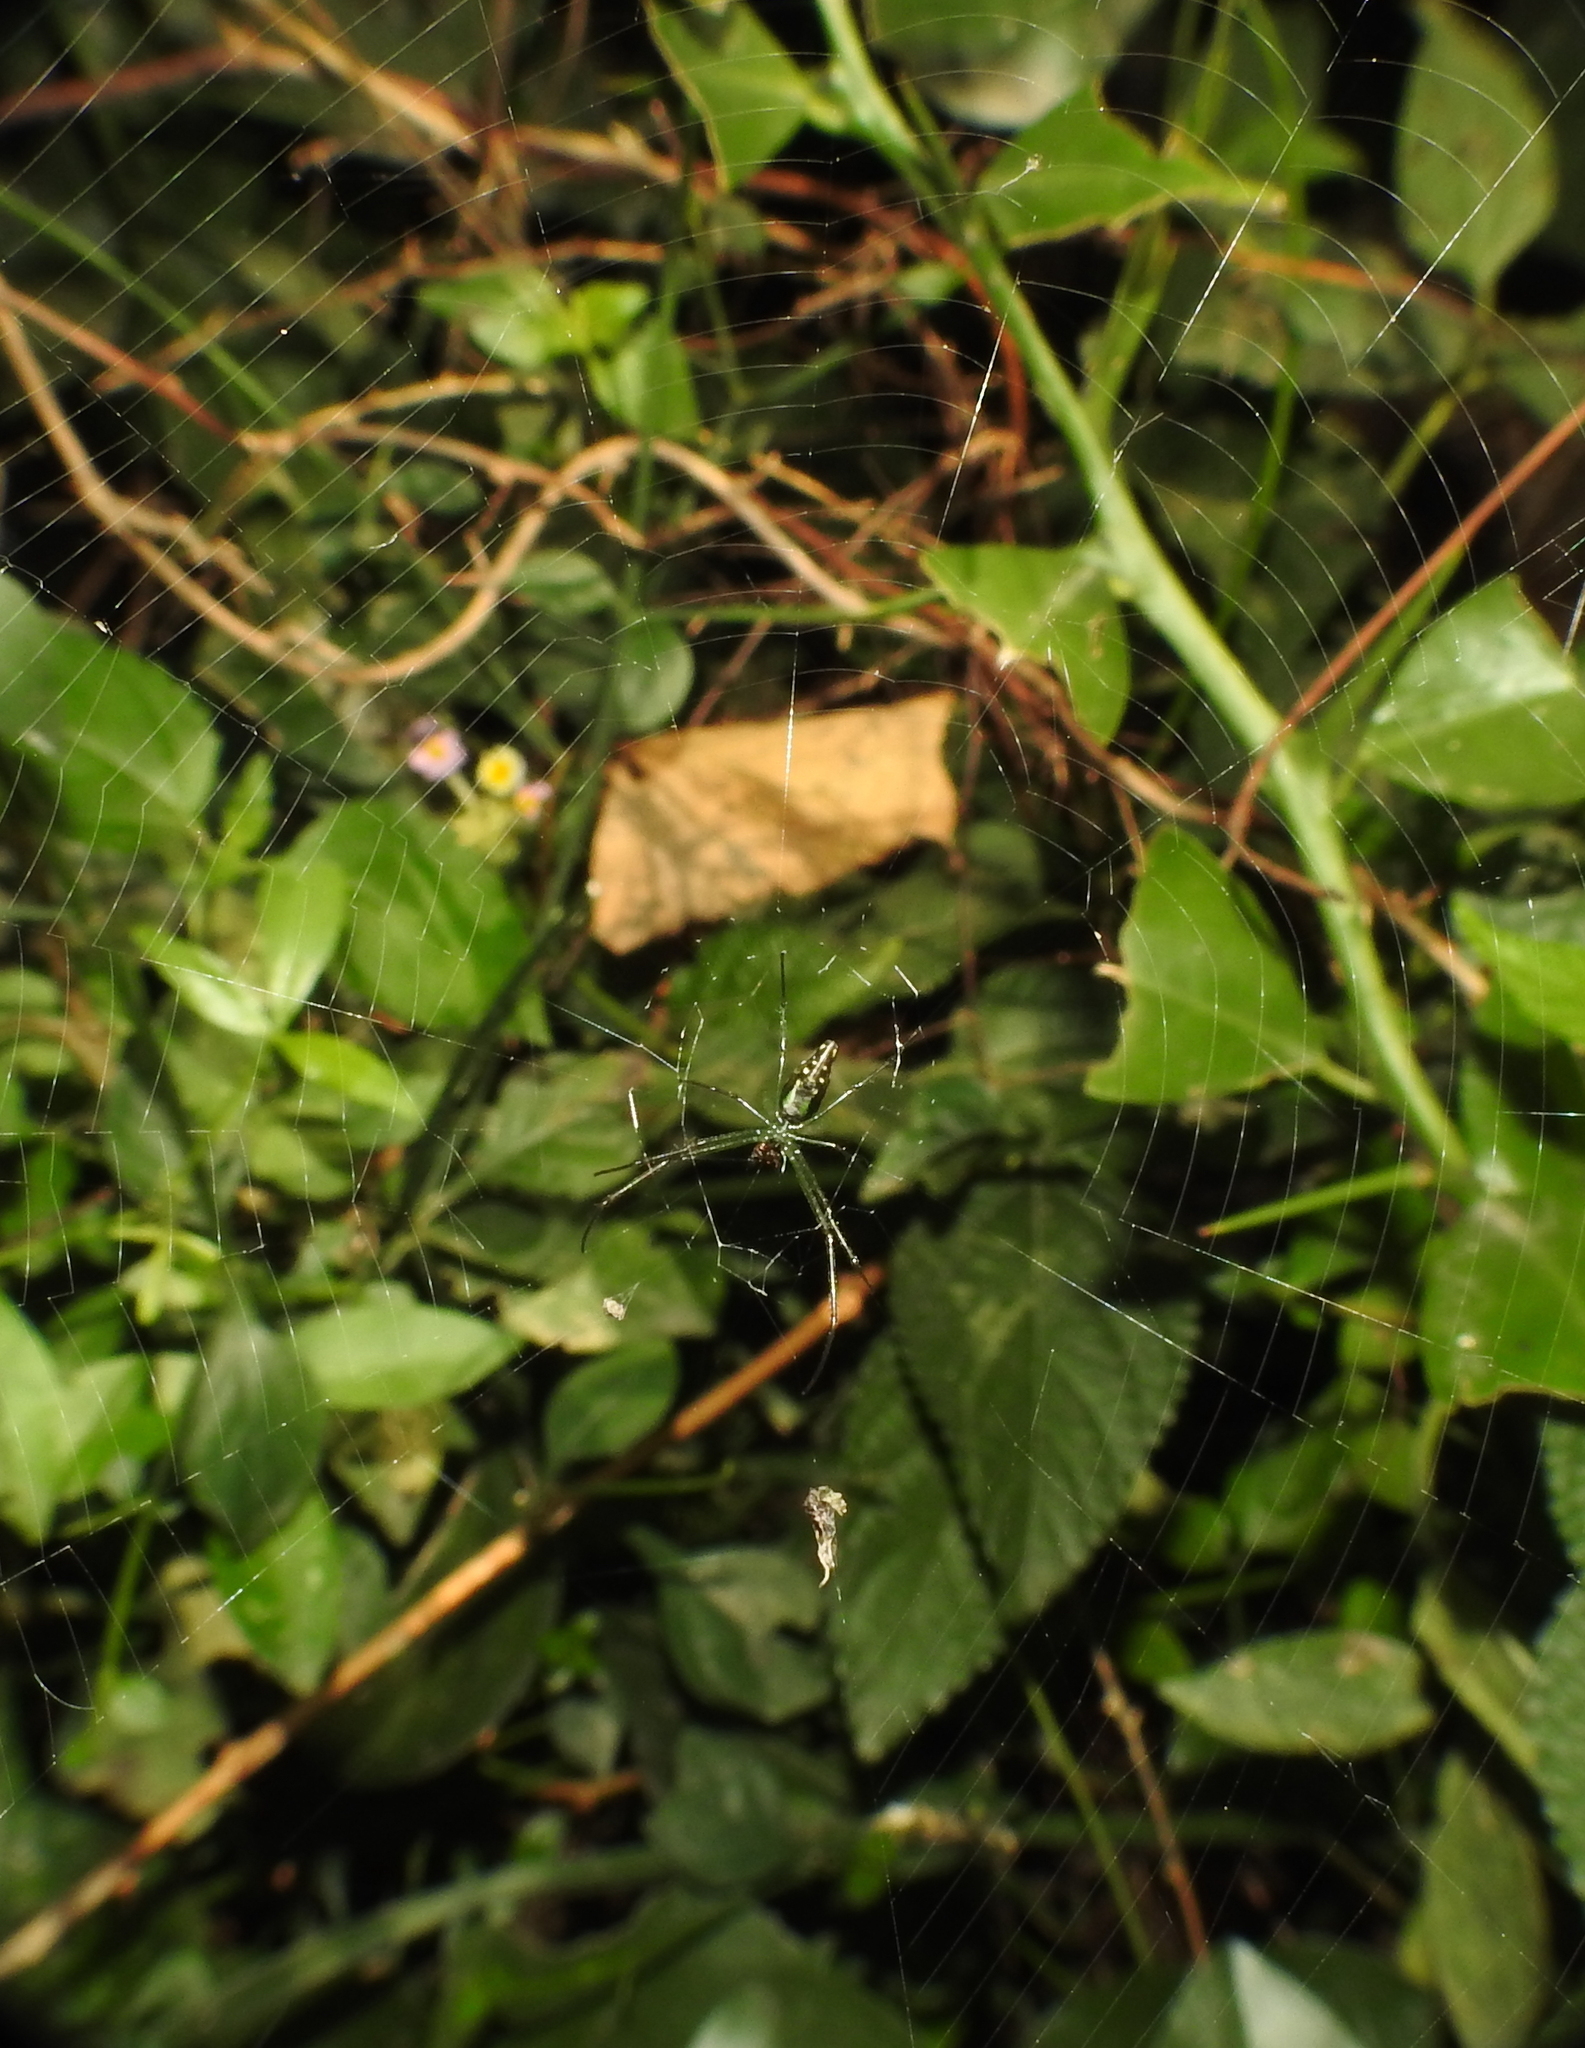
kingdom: Animalia
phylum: Arthropoda
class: Arachnida
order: Araneae
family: Tetragnathidae
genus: Leucauge
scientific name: Leucauge decorata
